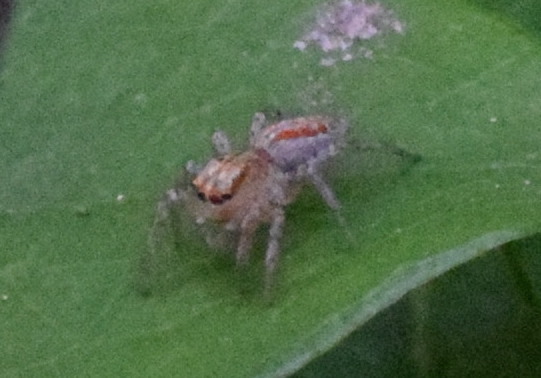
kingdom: Animalia
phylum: Arthropoda
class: Arachnida
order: Araneae
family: Salticidae
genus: Maevia
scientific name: Maevia inclemens
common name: Dimorphic jumper
